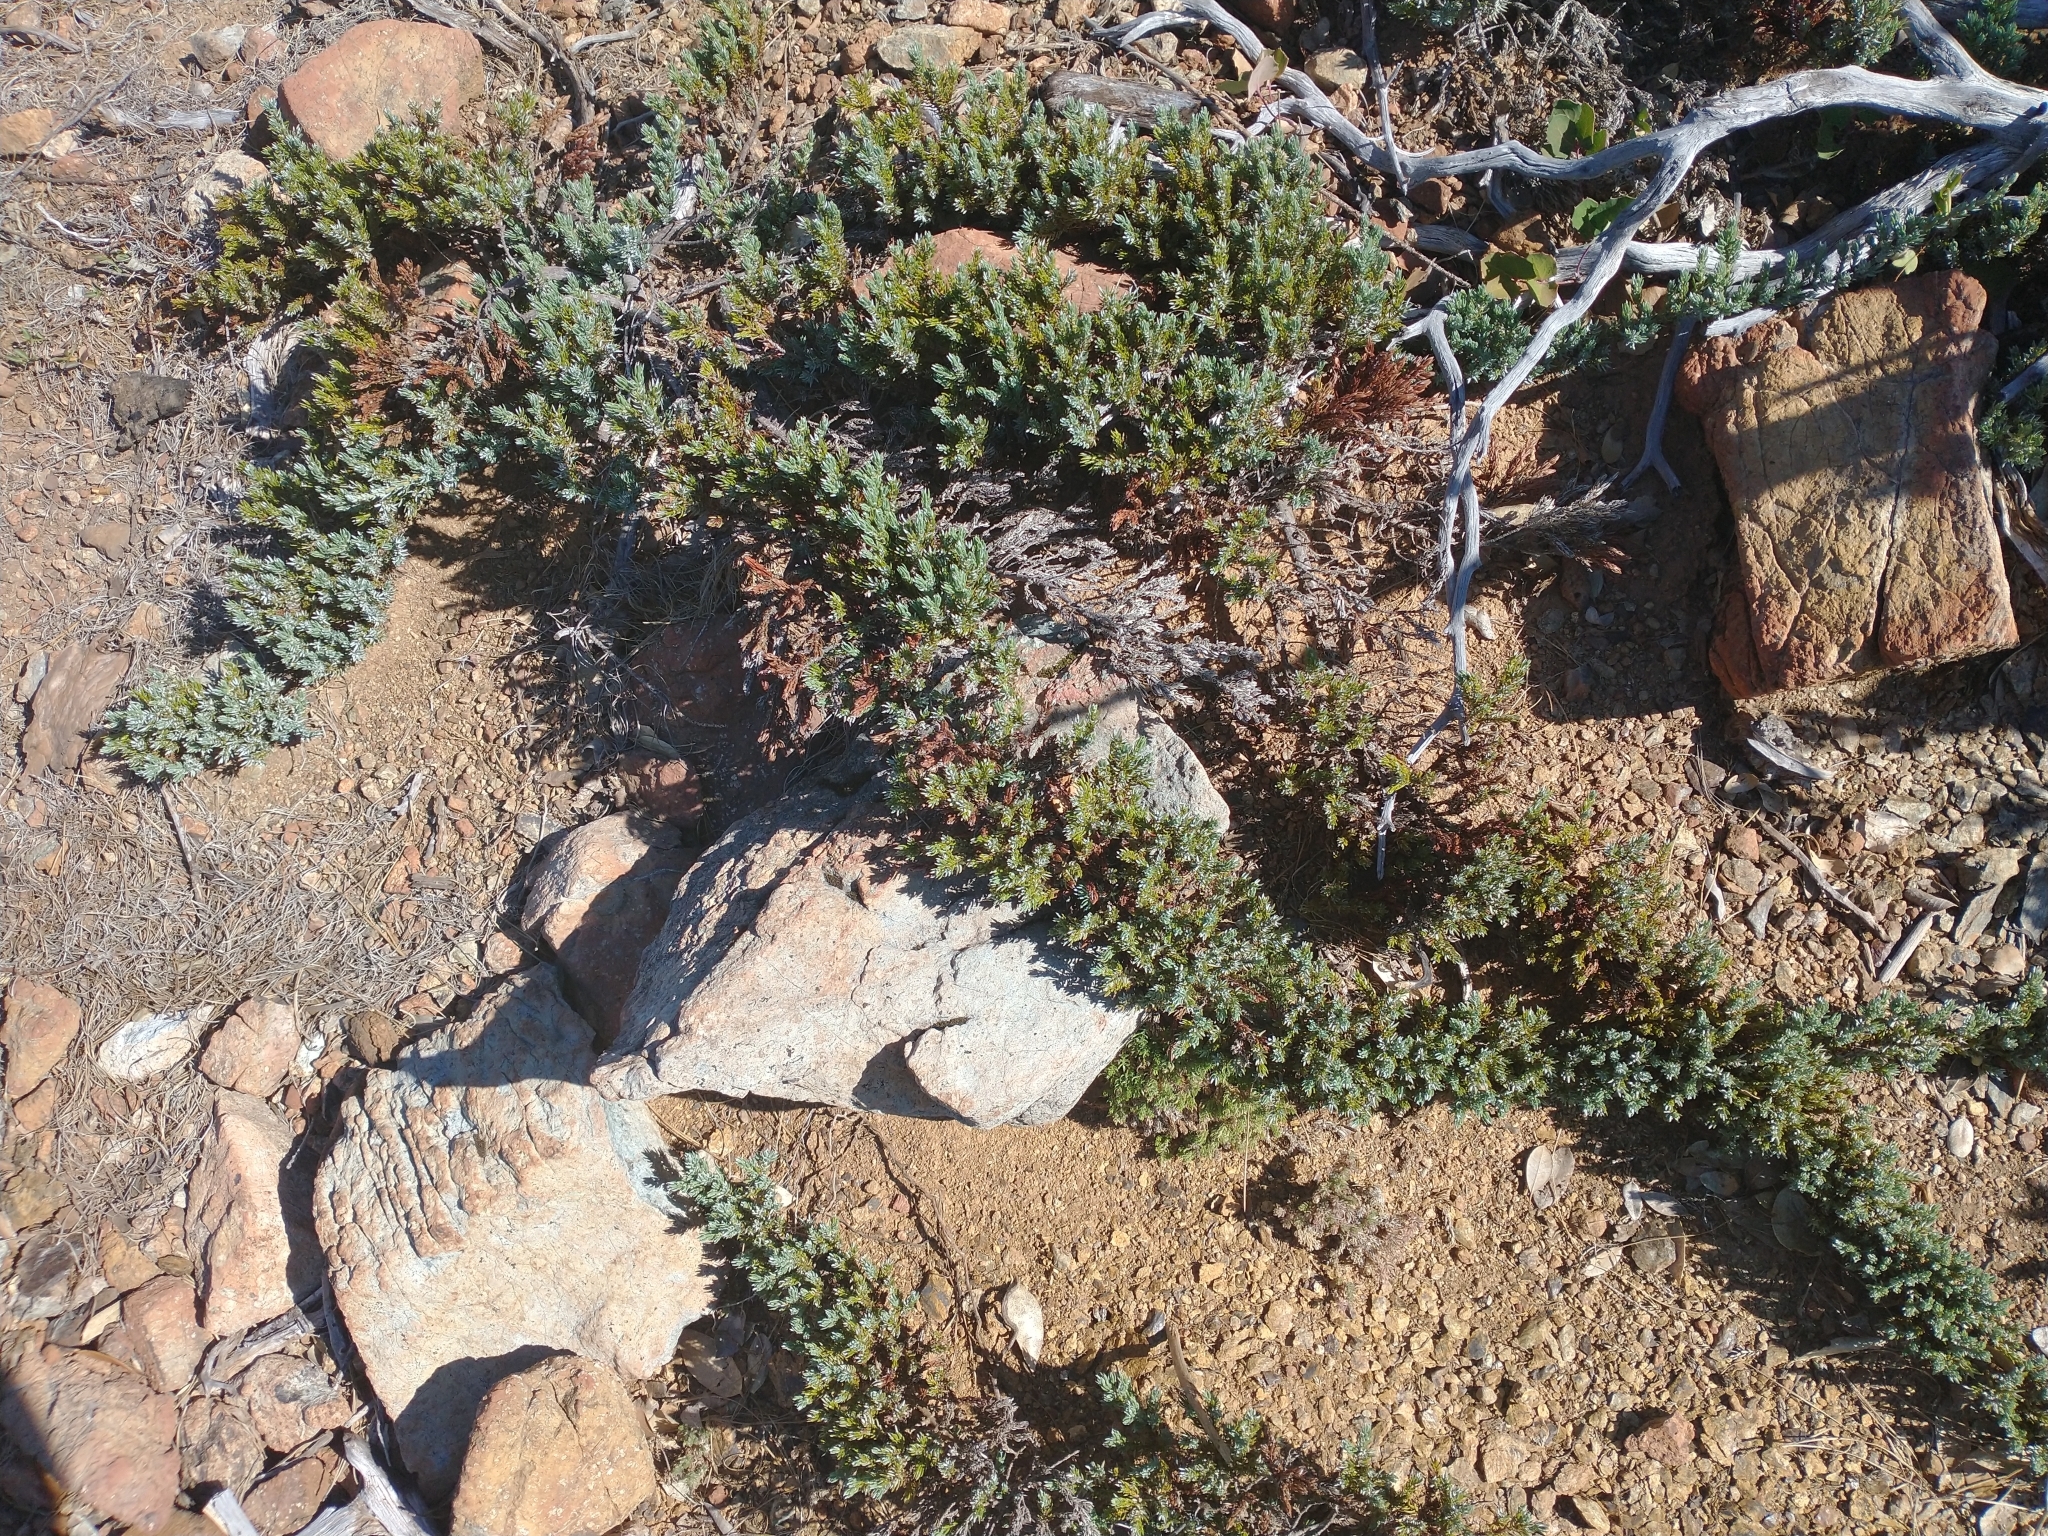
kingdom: Plantae
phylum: Tracheophyta
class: Pinopsida
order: Pinales
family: Cupressaceae
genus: Juniperus
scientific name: Juniperus communis
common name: Common juniper
